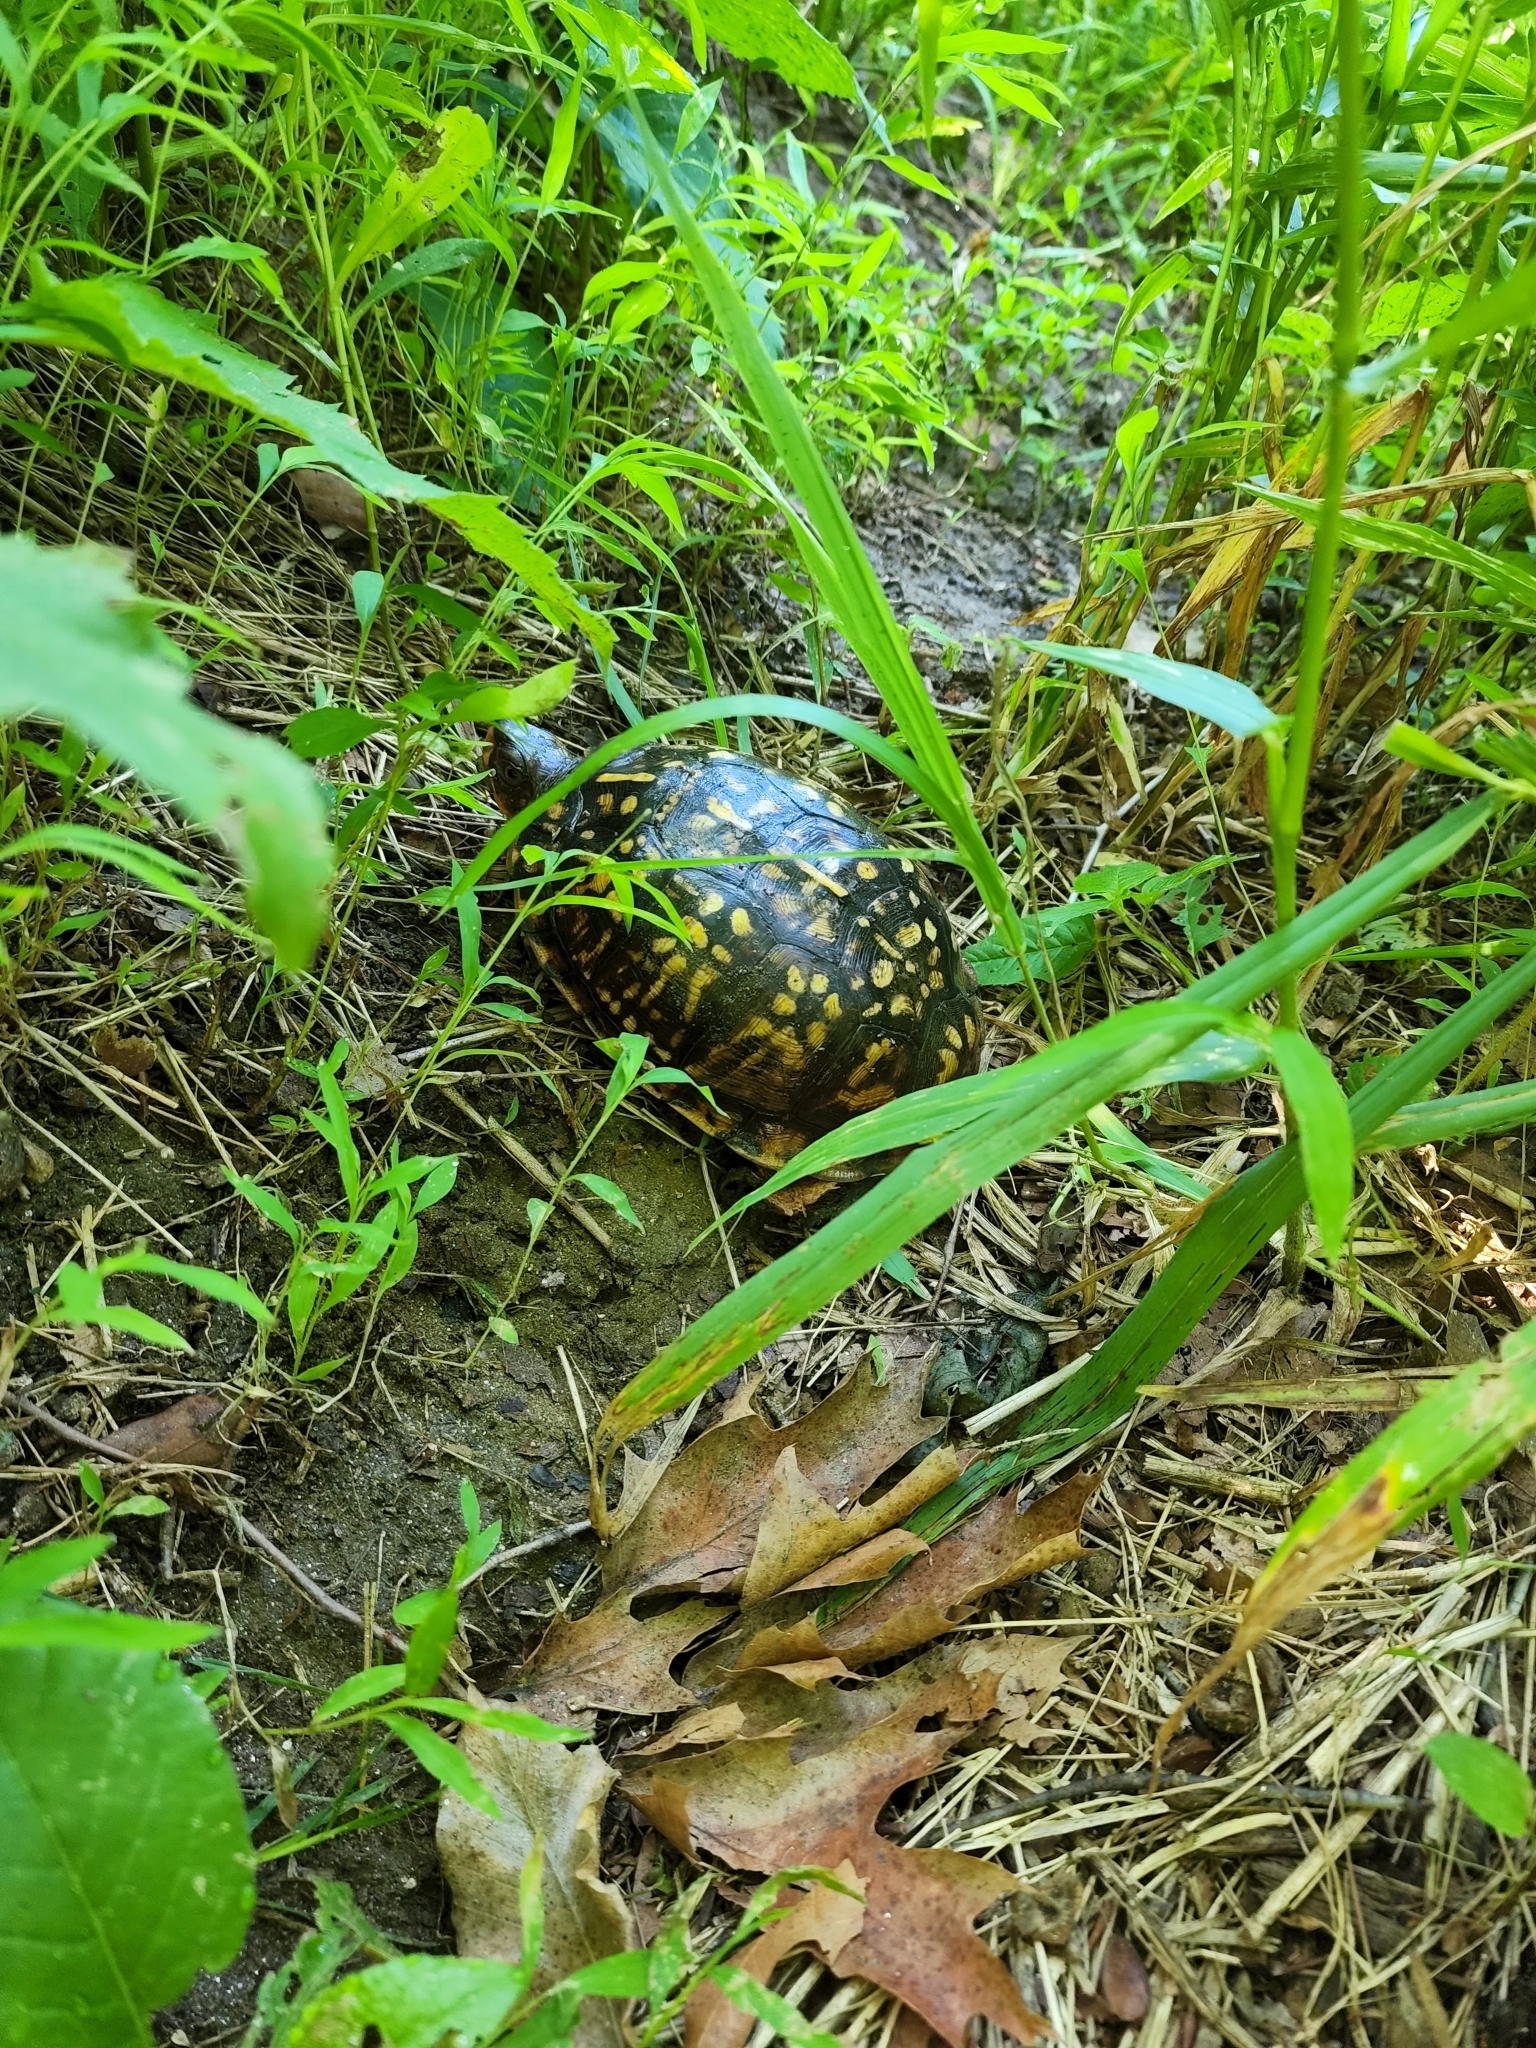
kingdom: Animalia
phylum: Chordata
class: Testudines
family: Emydidae
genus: Terrapene
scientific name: Terrapene carolina
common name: Common box turtle
